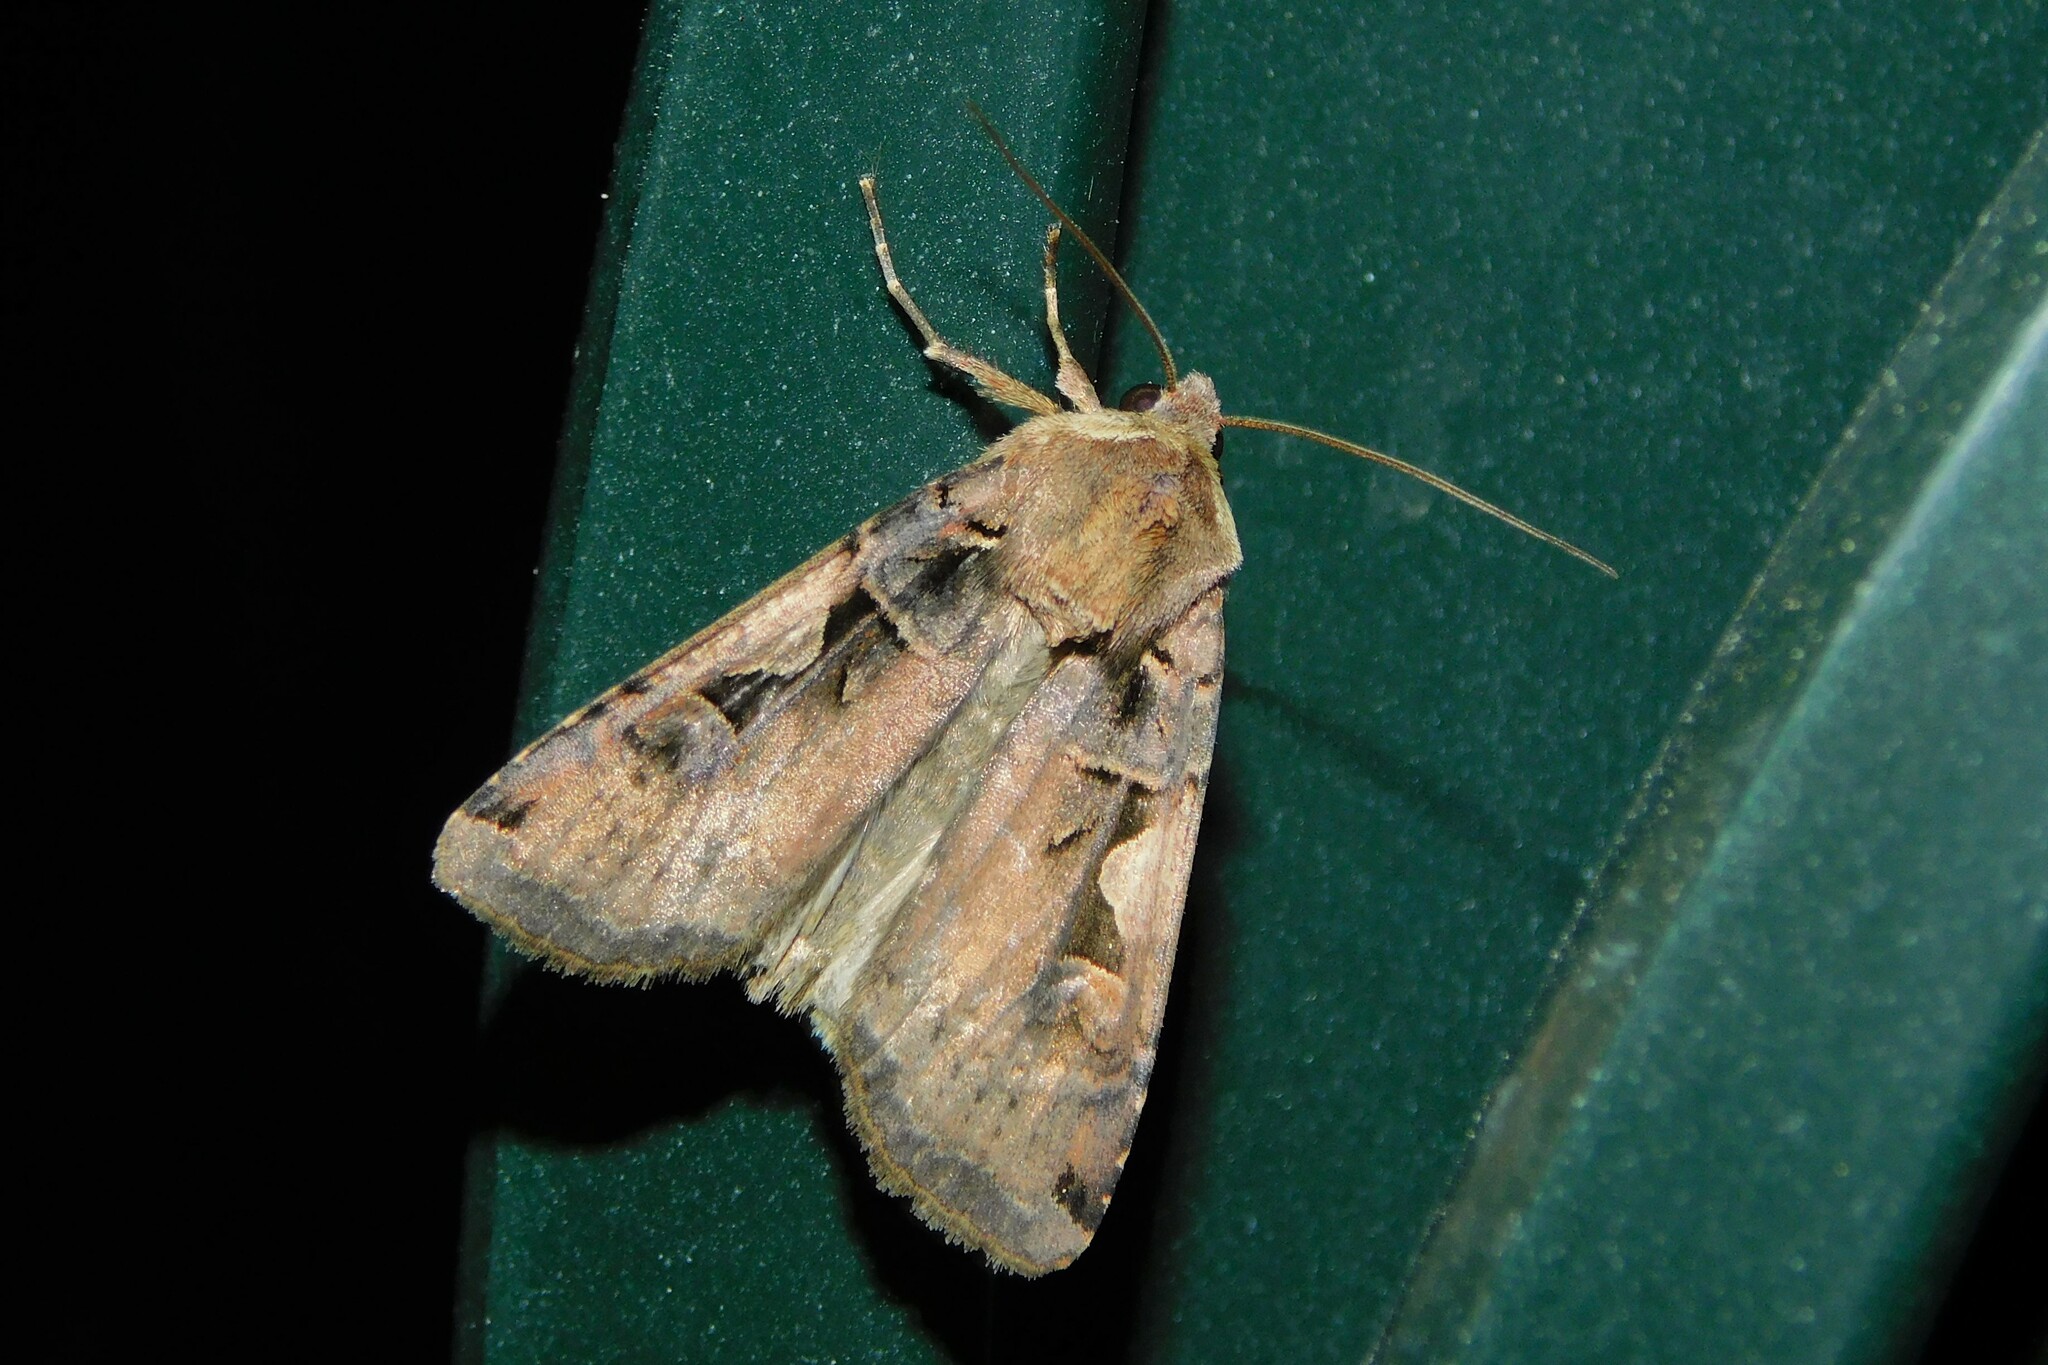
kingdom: Animalia
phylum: Arthropoda
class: Insecta
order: Lepidoptera
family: Noctuidae
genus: Xestia
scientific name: Xestia c-nigrum
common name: Setaceous hebrew character
